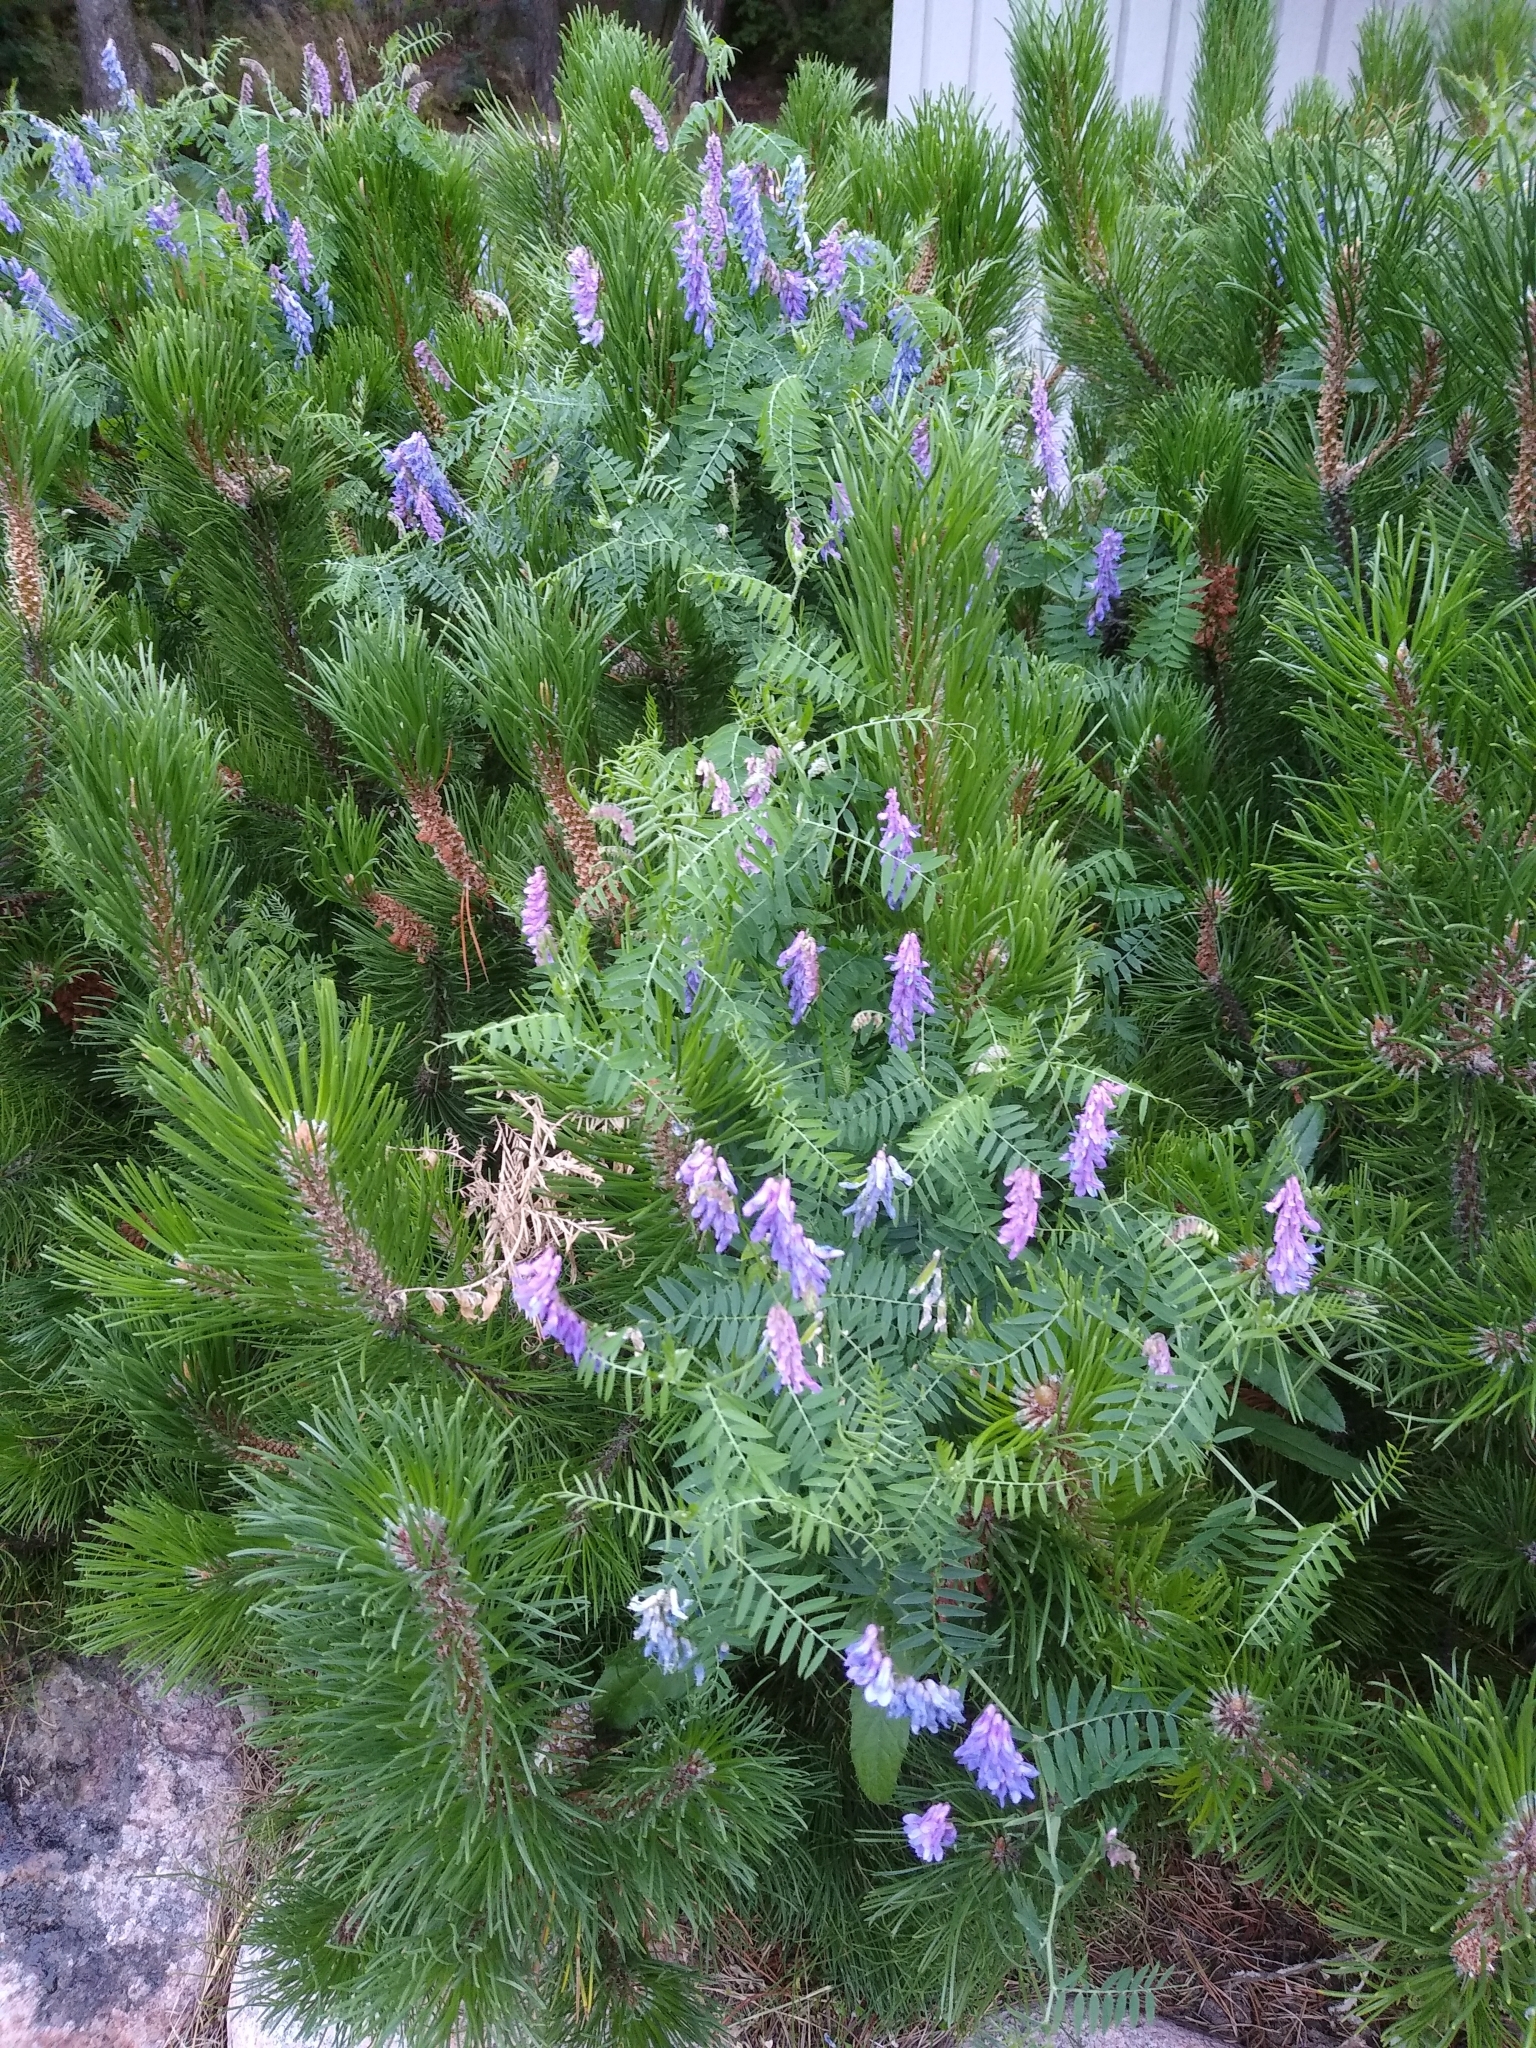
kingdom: Plantae
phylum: Tracheophyta
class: Magnoliopsida
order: Fabales
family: Fabaceae
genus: Vicia
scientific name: Vicia cracca
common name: Bird vetch
